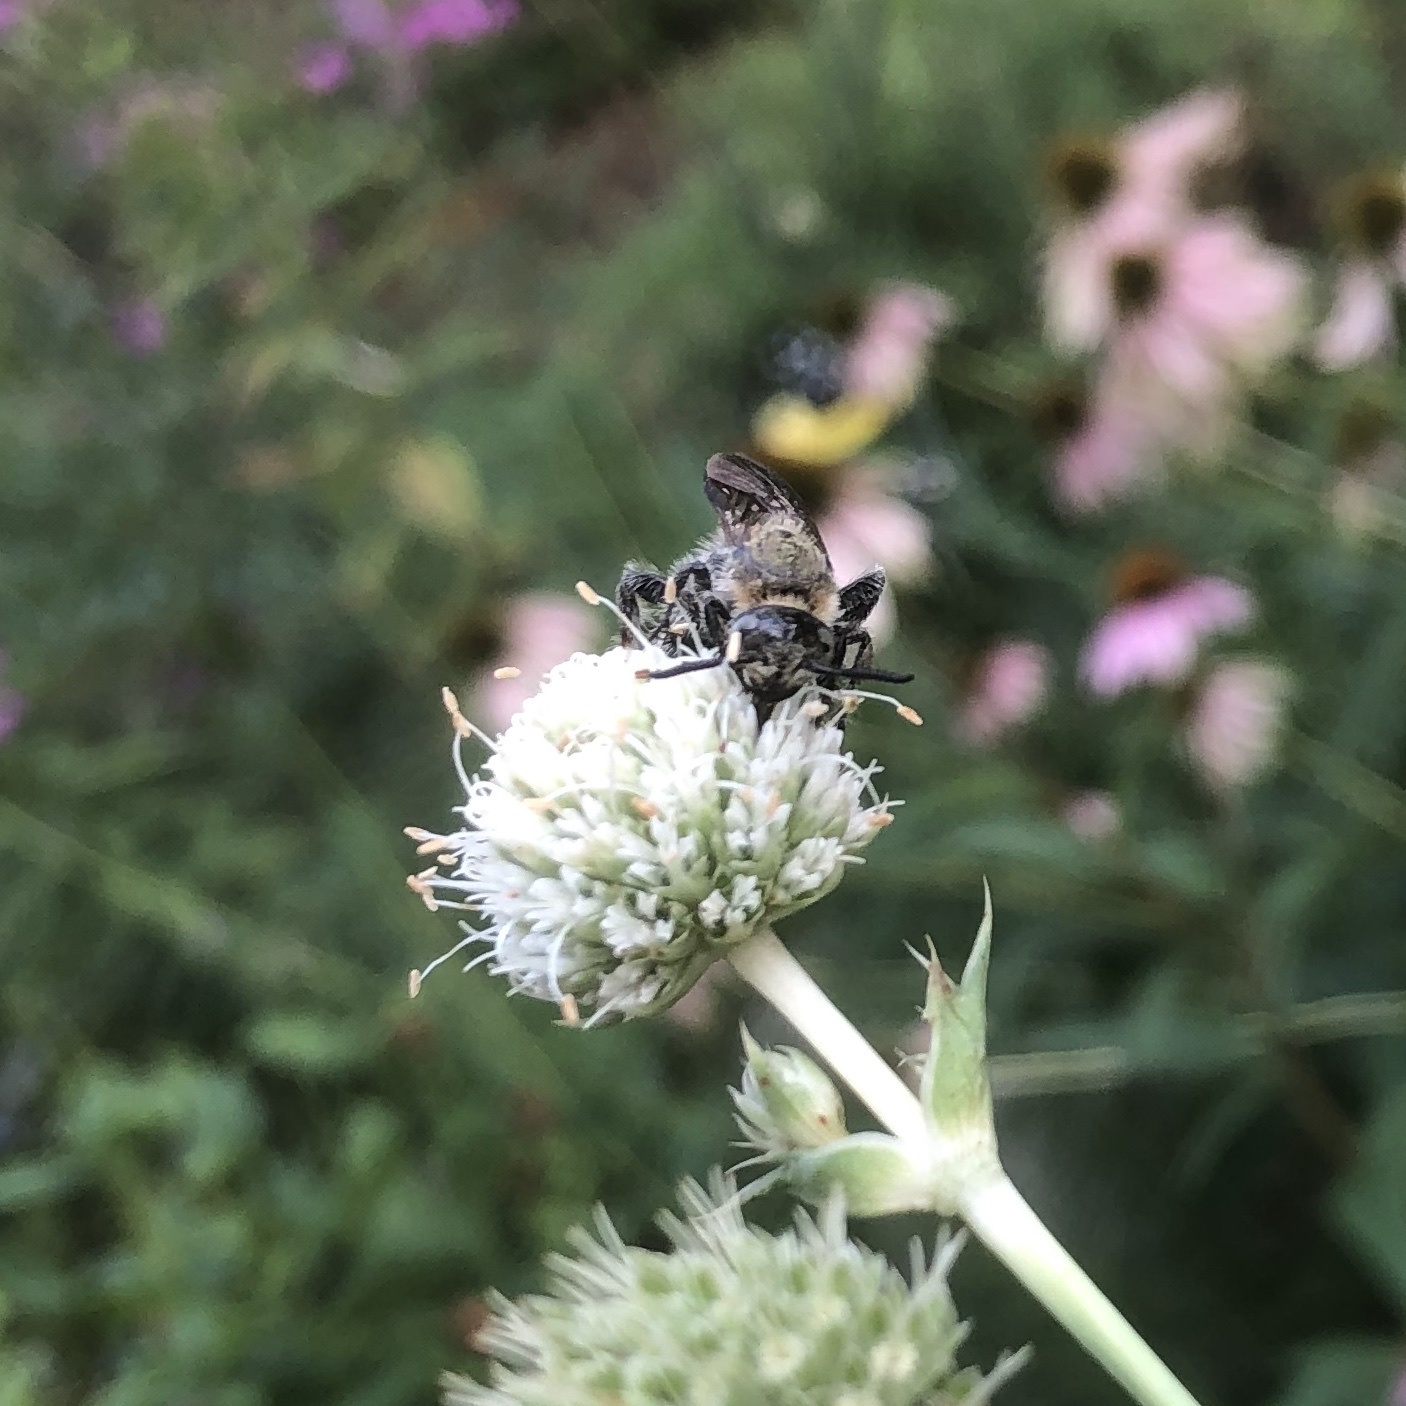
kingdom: Animalia
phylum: Arthropoda
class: Insecta
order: Hymenoptera
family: Scoliidae
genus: Dielis
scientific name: Dielis
